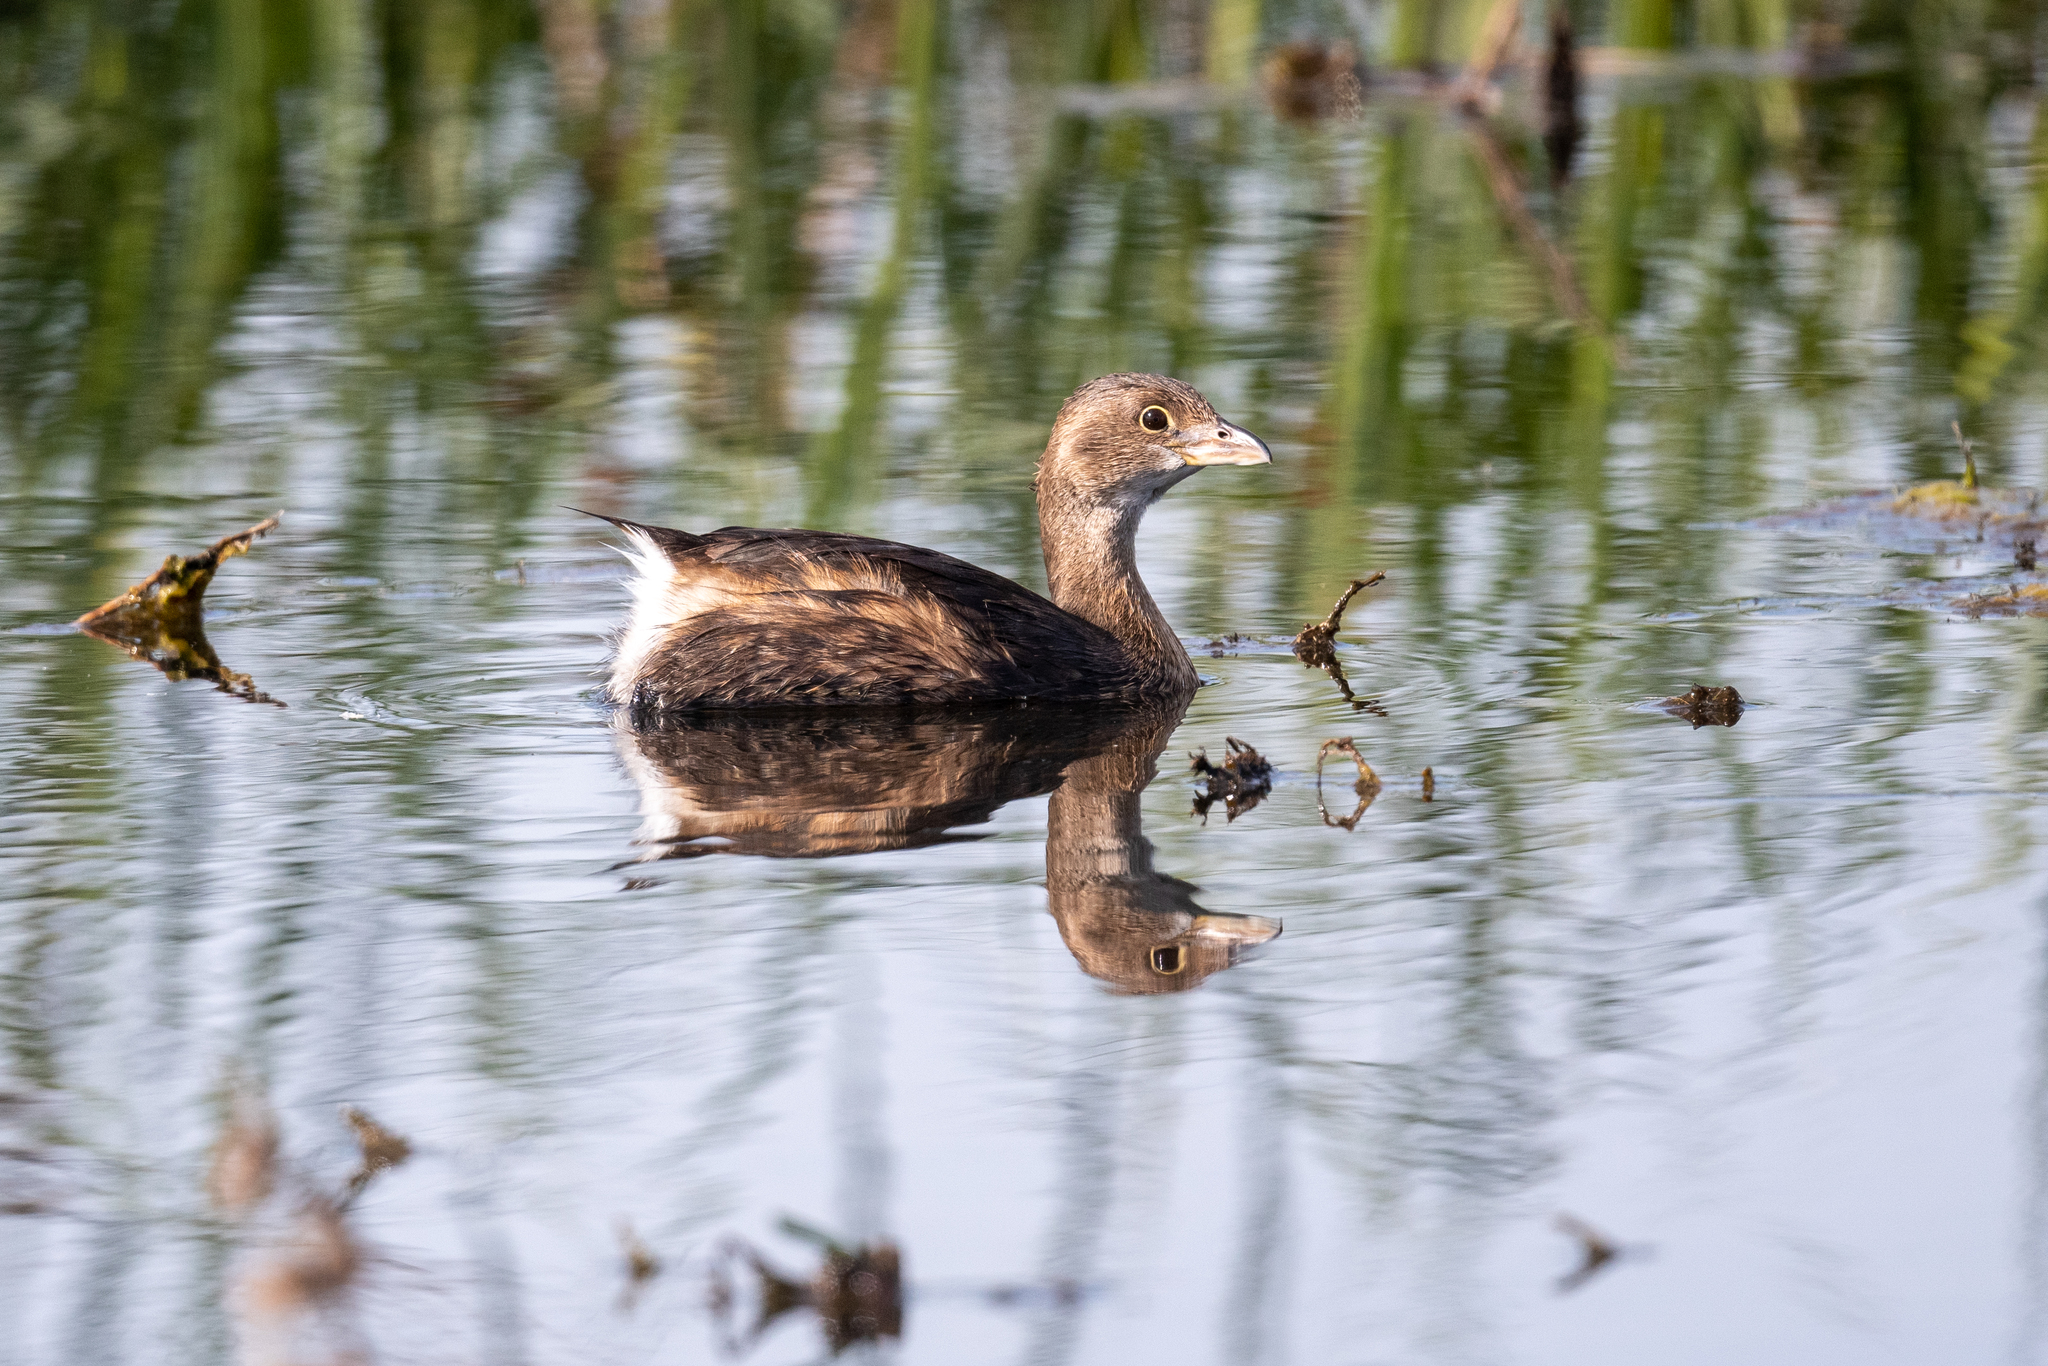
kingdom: Animalia
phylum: Chordata
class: Aves
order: Podicipediformes
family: Podicipedidae
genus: Podilymbus
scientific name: Podilymbus podiceps
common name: Pied-billed grebe
